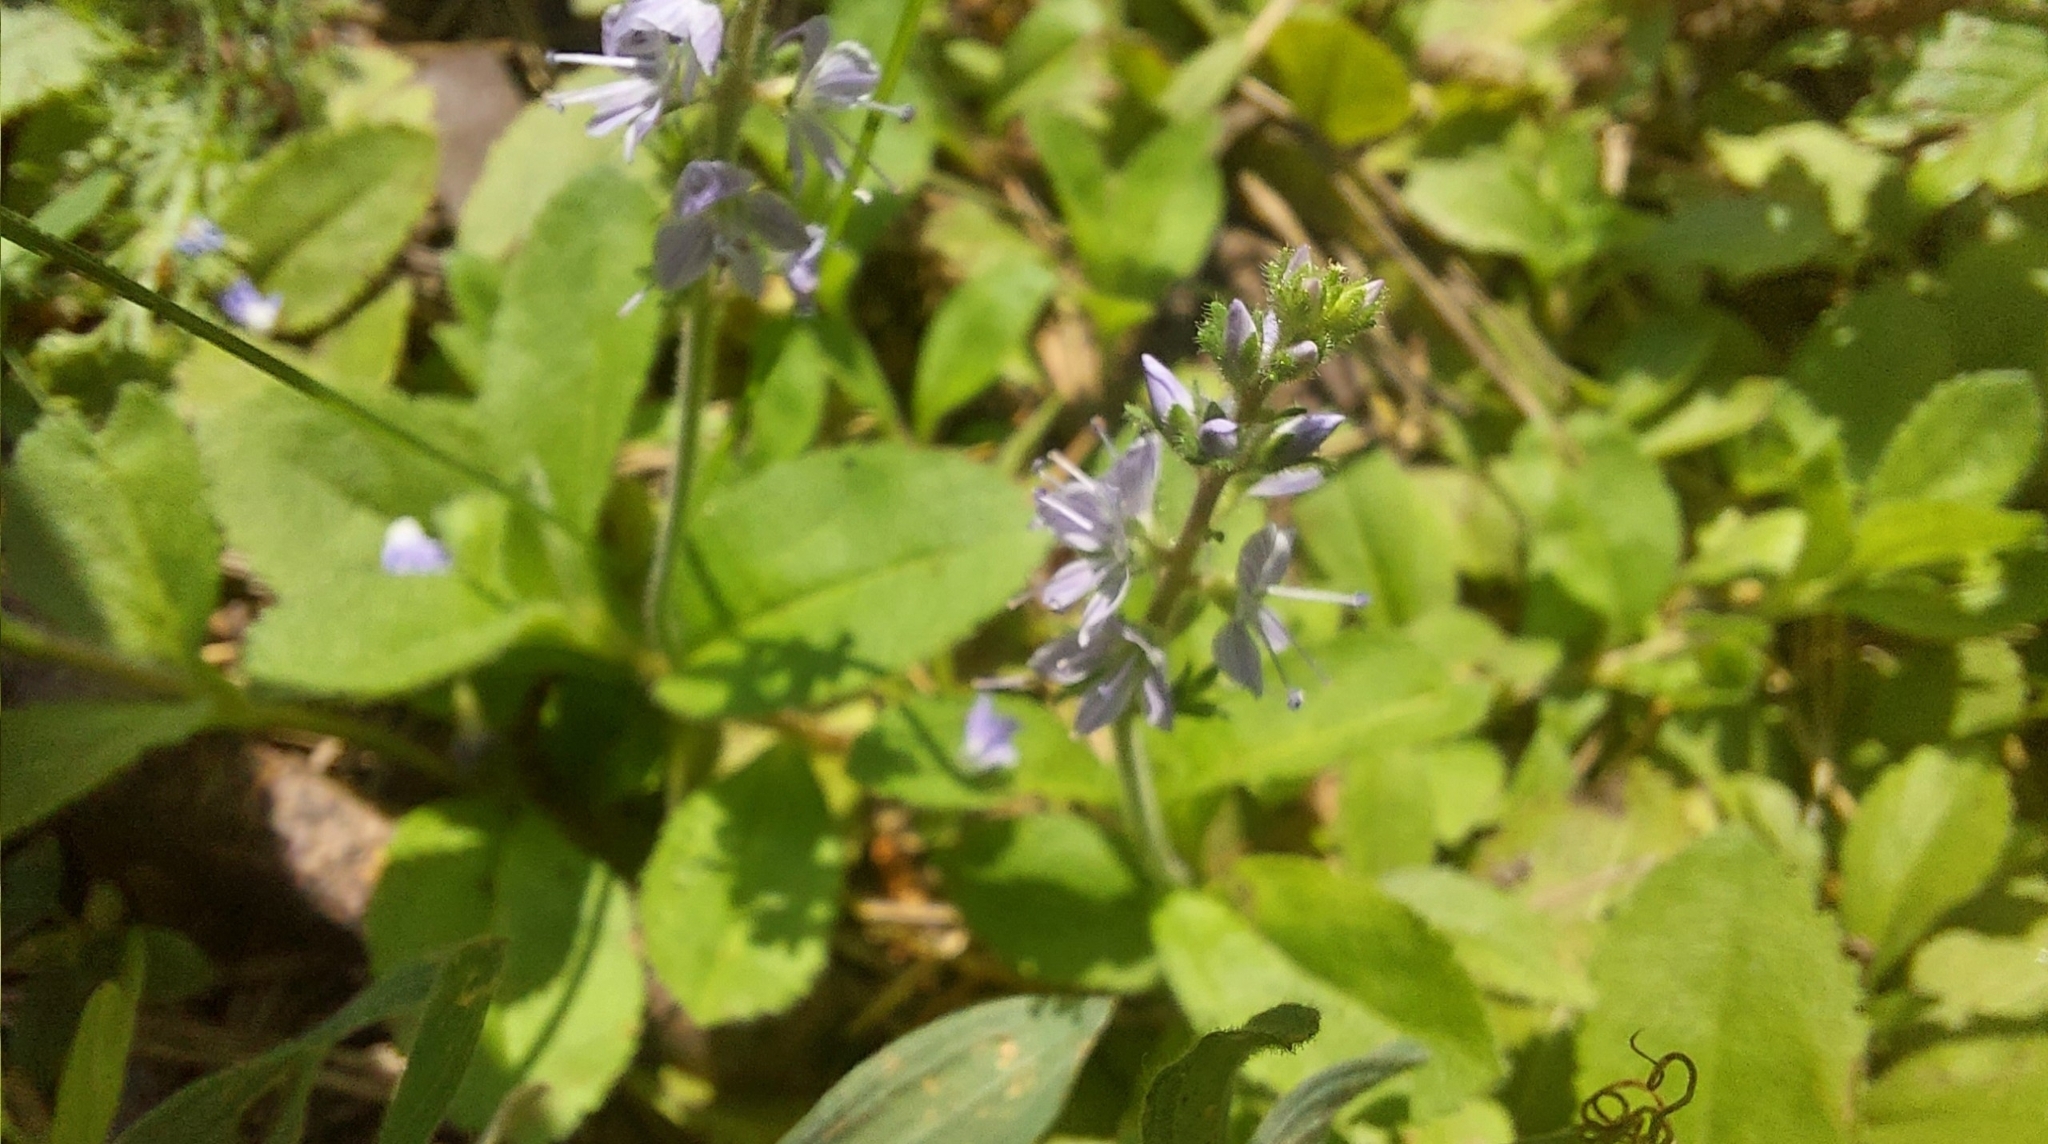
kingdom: Plantae
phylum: Tracheophyta
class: Magnoliopsida
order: Lamiales
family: Plantaginaceae
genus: Veronica
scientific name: Veronica officinalis
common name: Common speedwell
